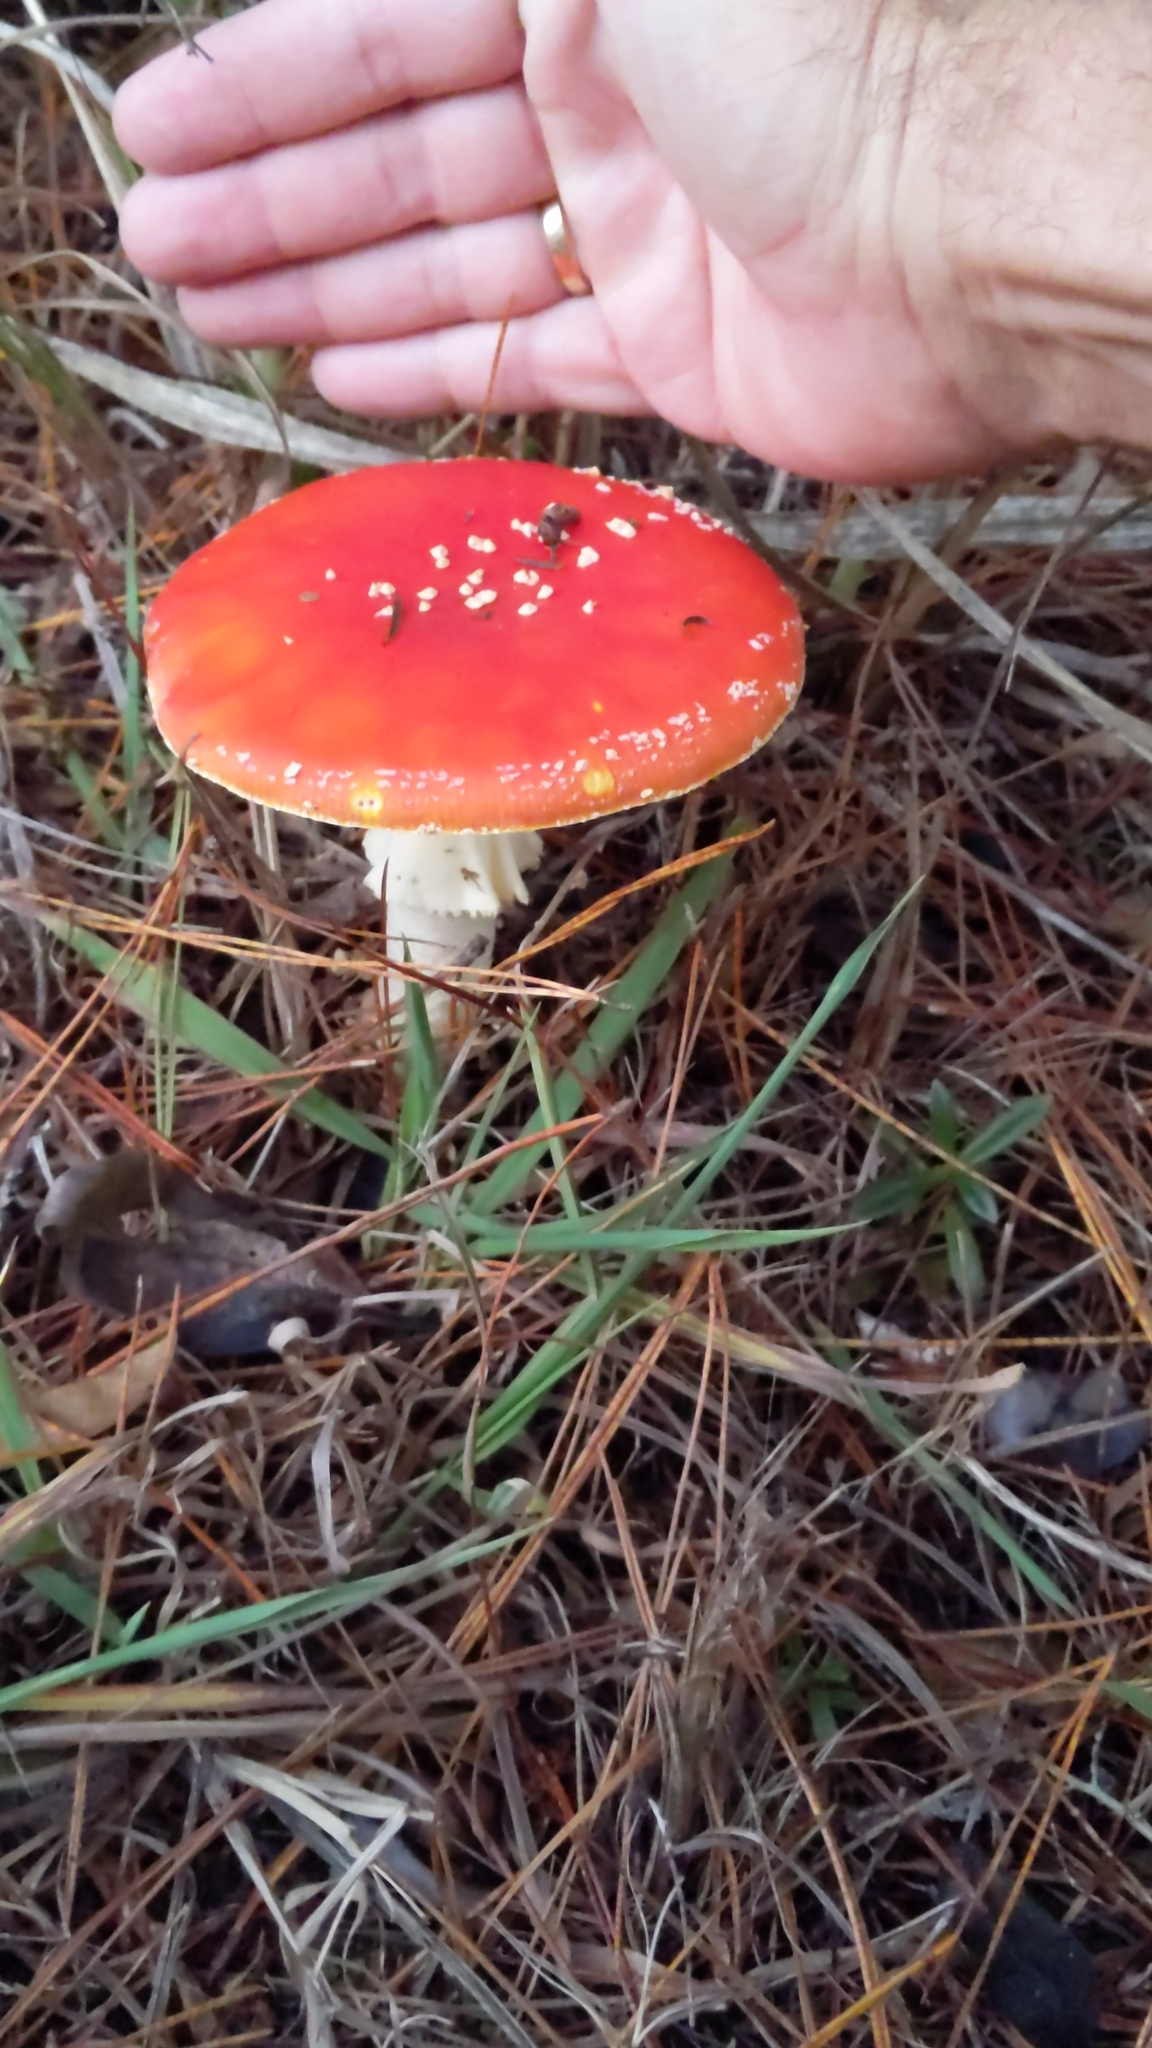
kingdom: Fungi
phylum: Basidiomycota
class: Agaricomycetes
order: Agaricales
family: Amanitaceae
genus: Amanita
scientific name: Amanita muscaria
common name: Fly agaric
